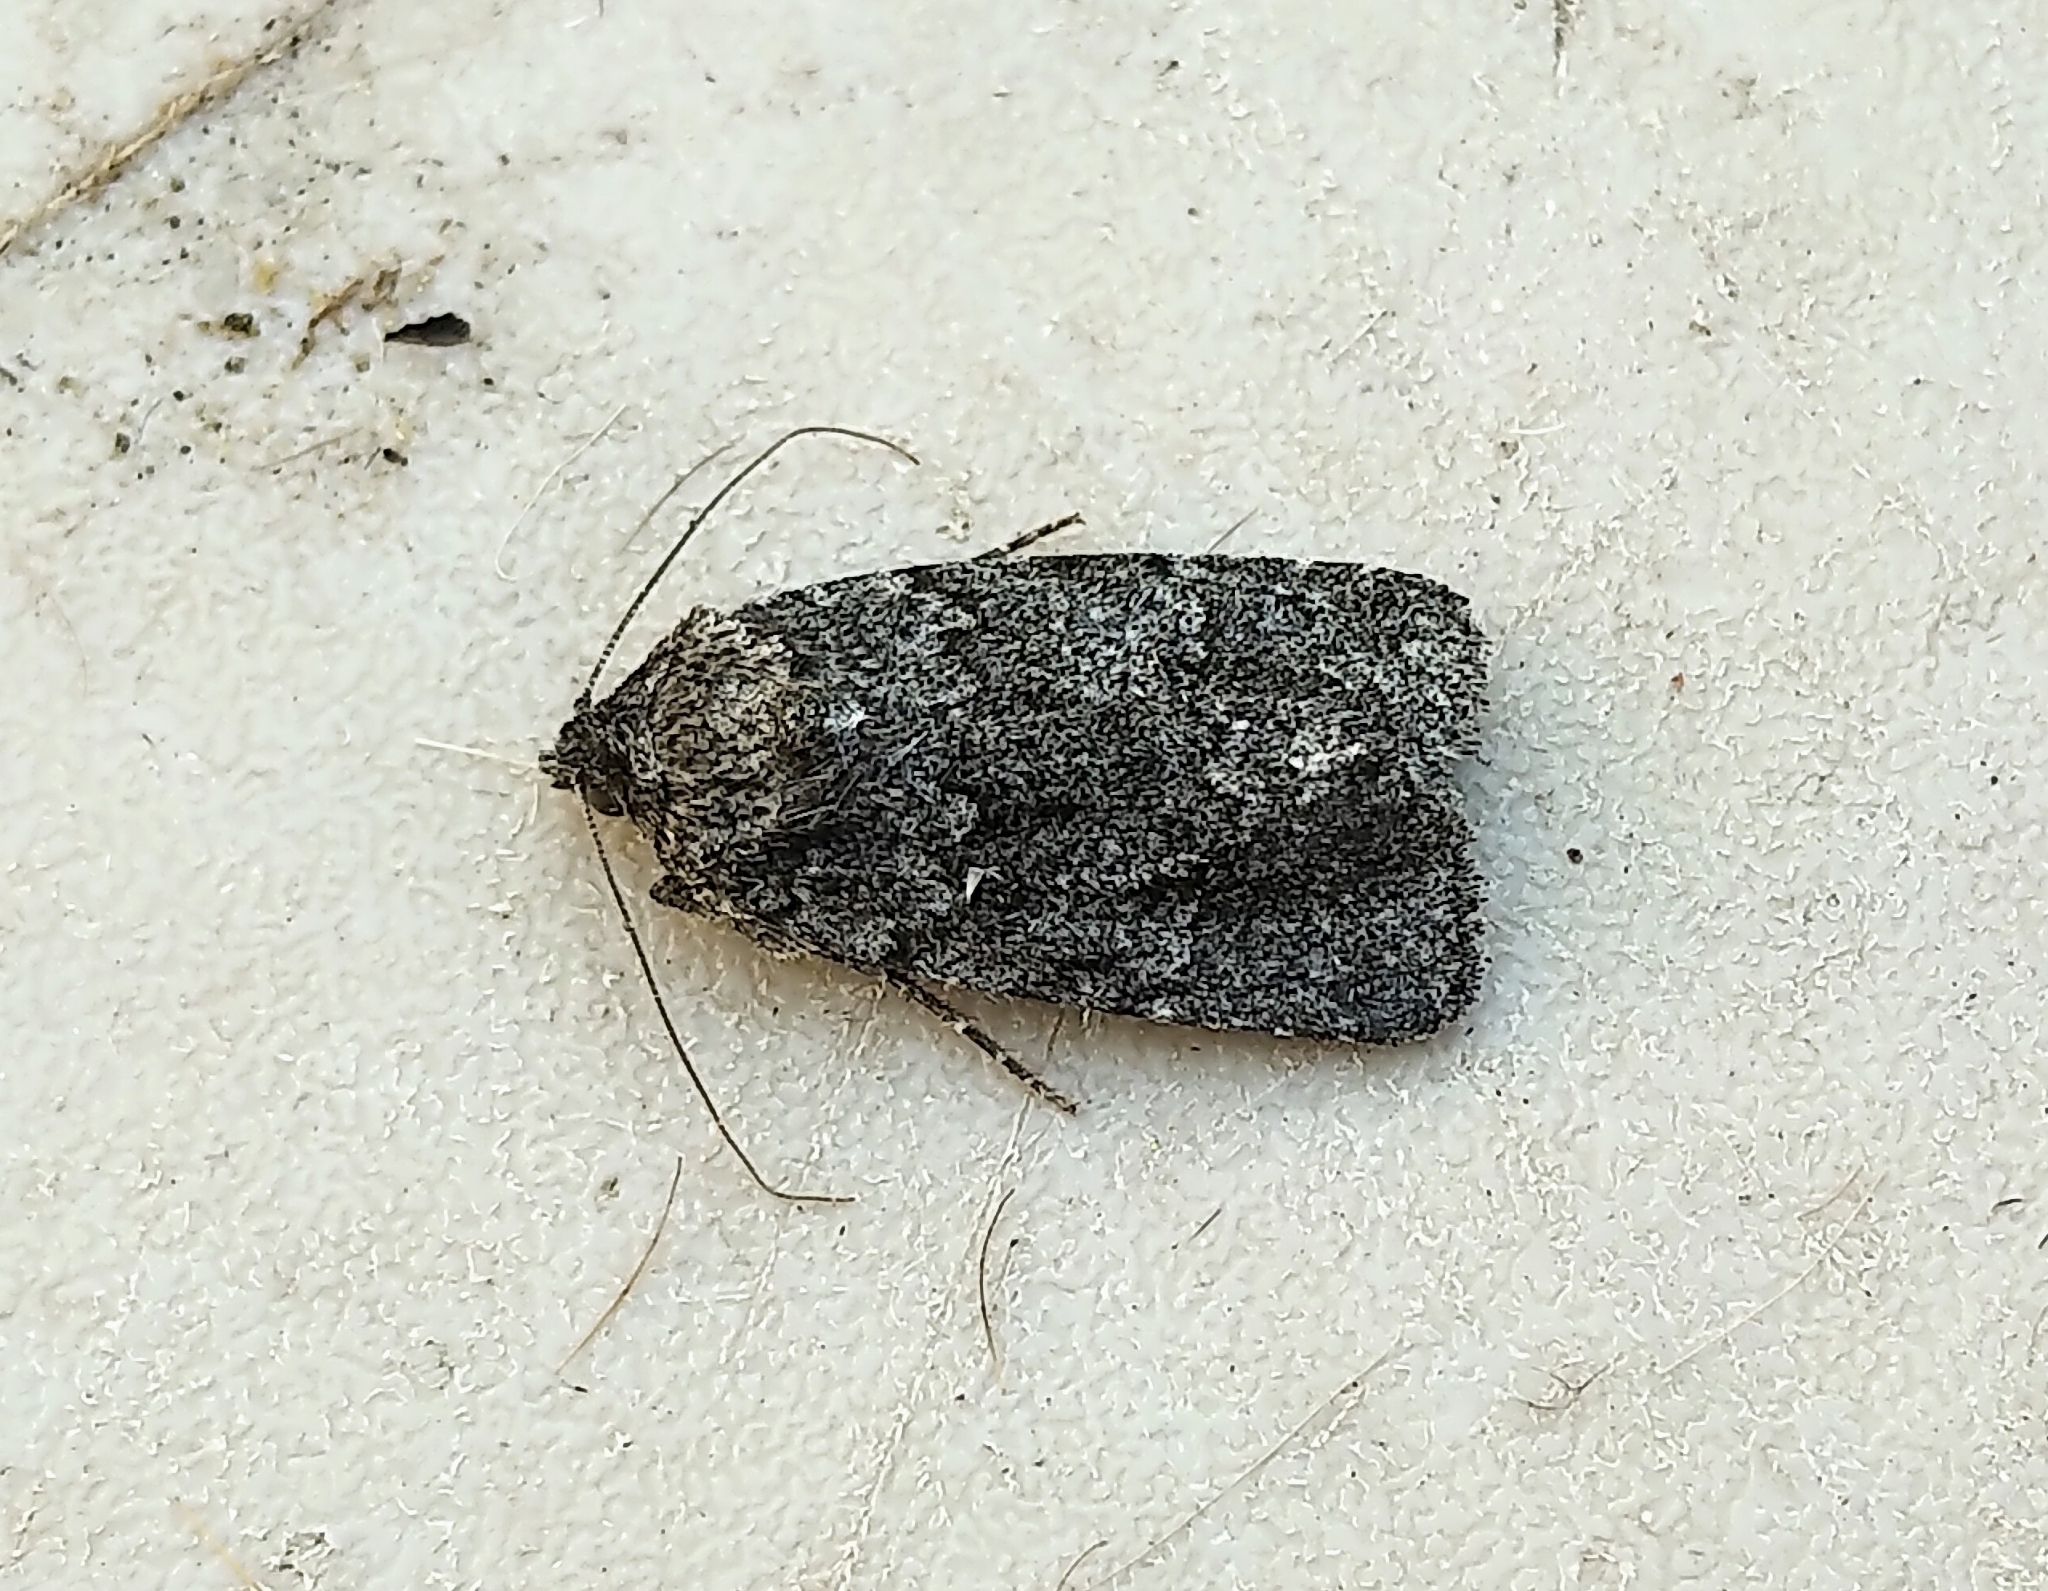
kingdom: Animalia
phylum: Arthropoda
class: Insecta
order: Lepidoptera
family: Noctuidae
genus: Sympistis
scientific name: Sympistis dentata
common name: Blueberry sallow
